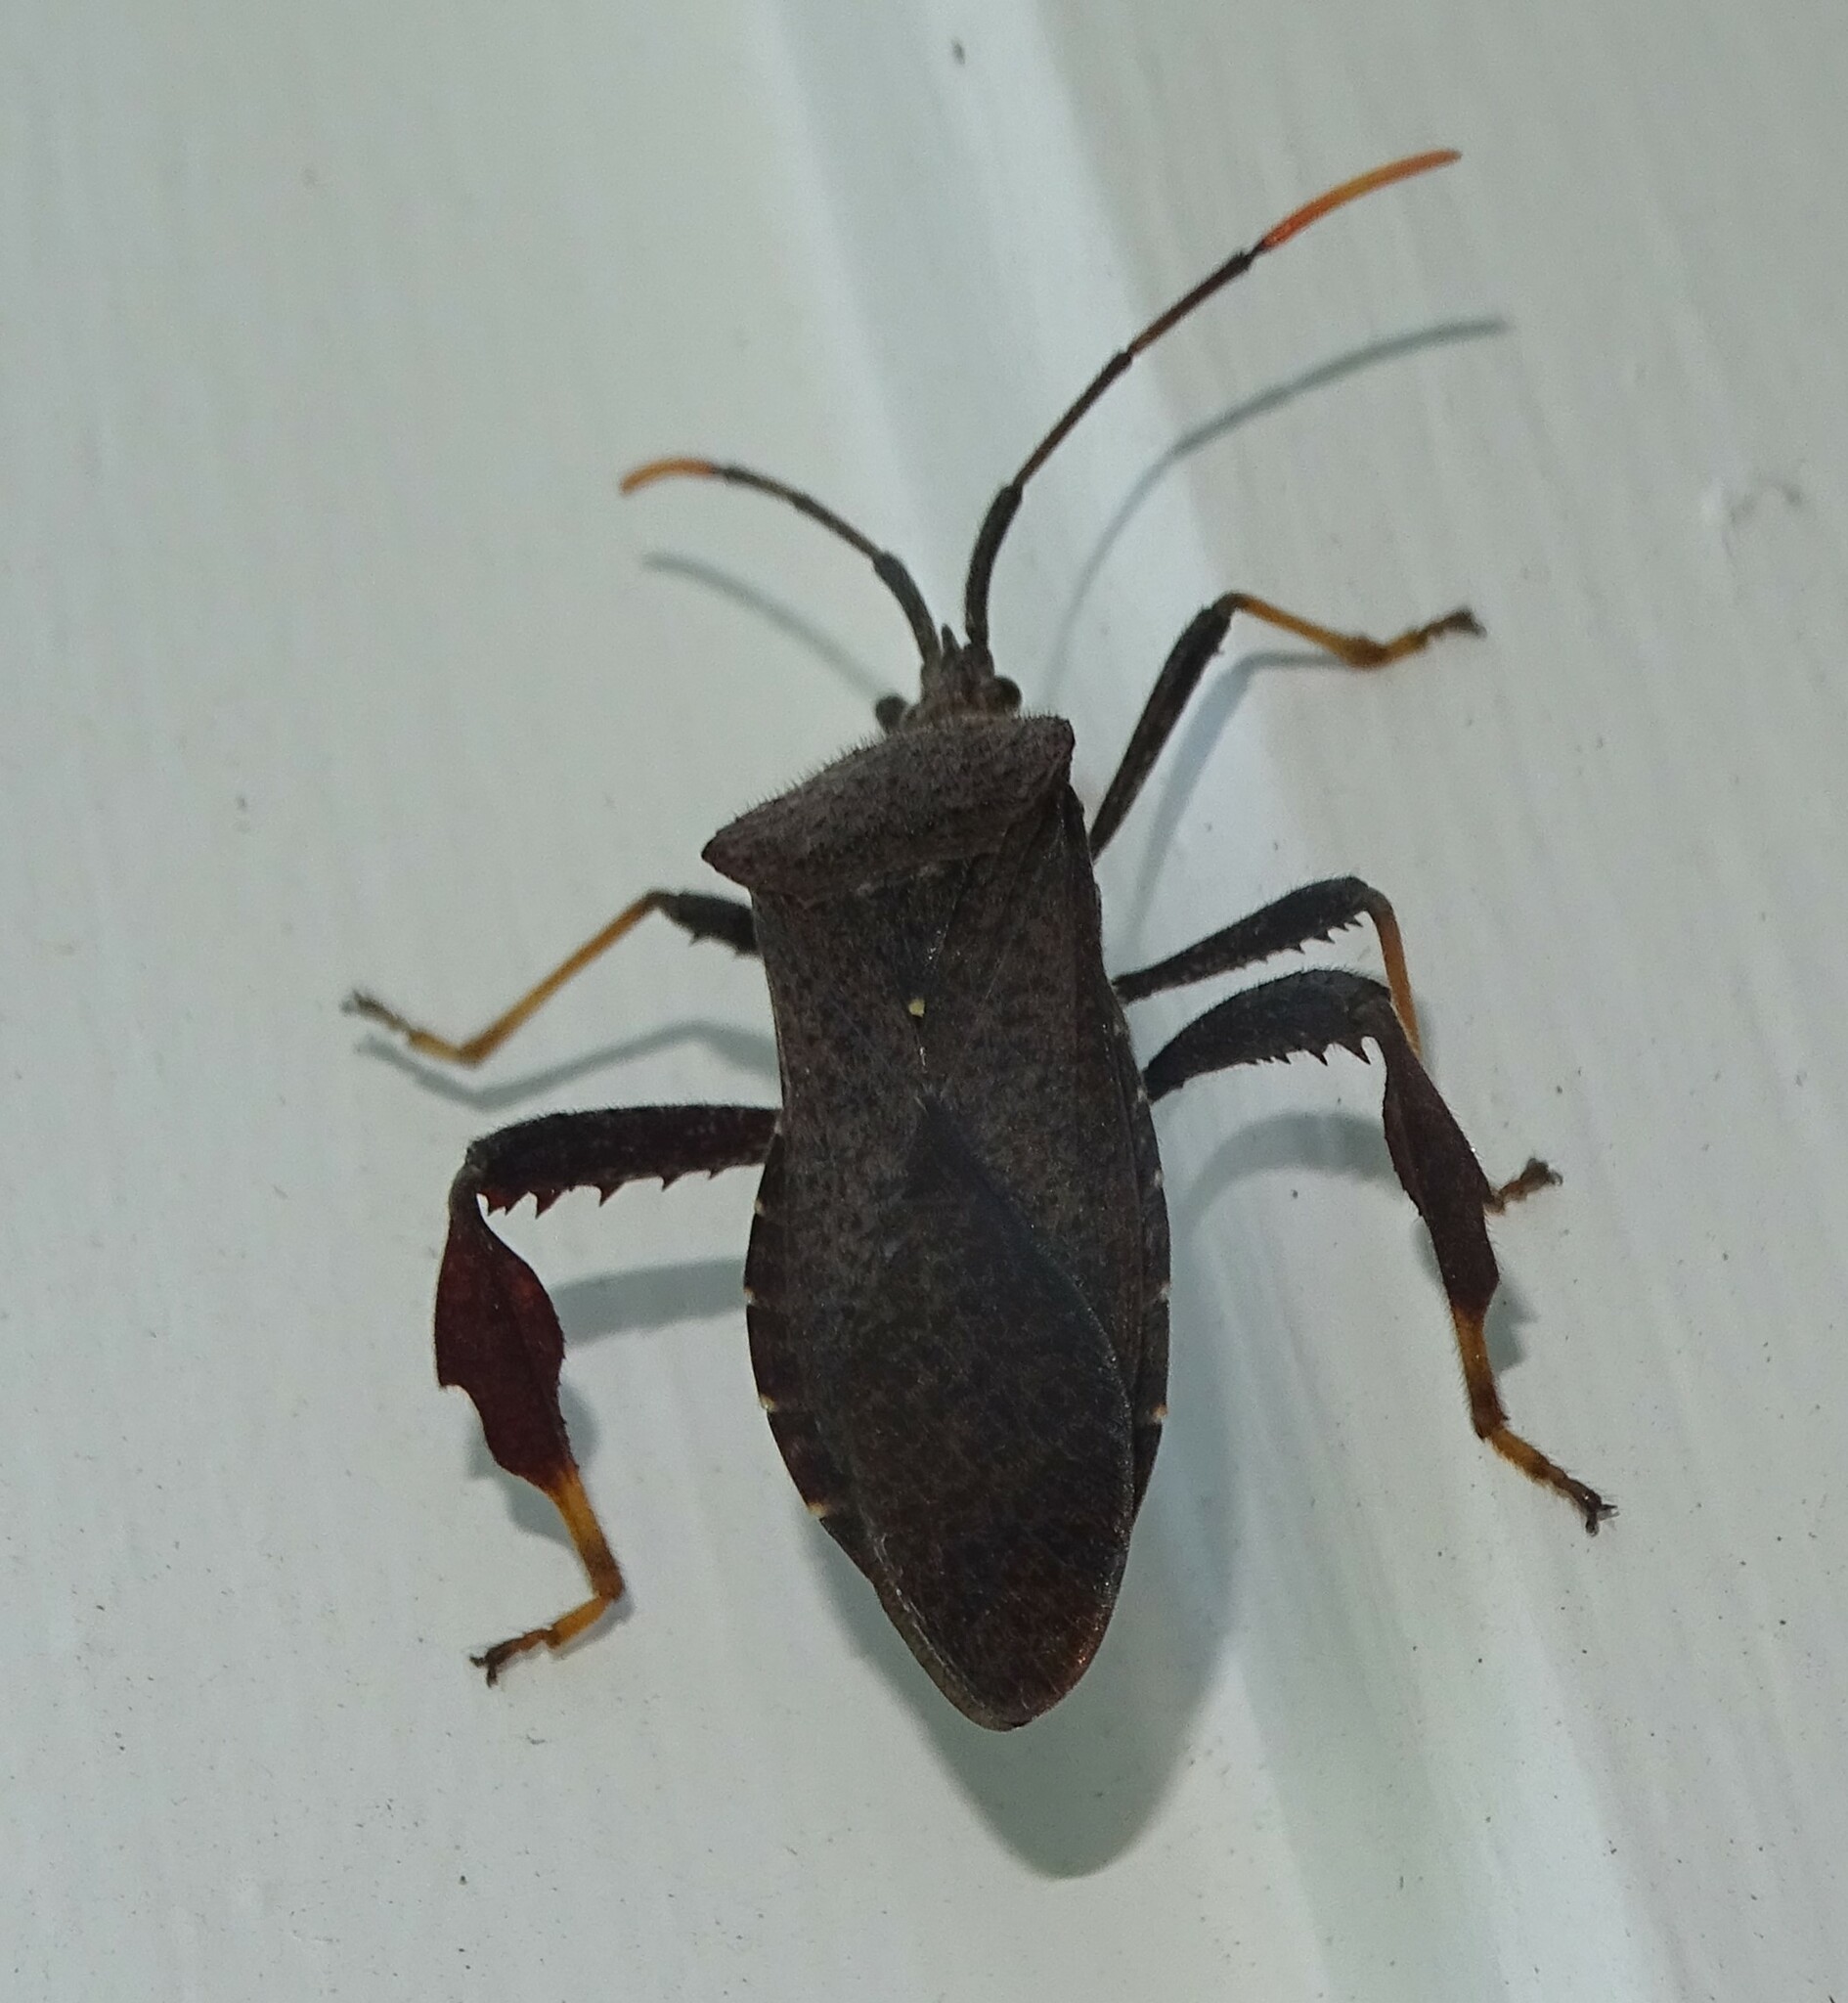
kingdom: Animalia
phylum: Arthropoda
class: Insecta
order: Hemiptera
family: Coreidae
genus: Acanthocephala
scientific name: Acanthocephala terminalis
